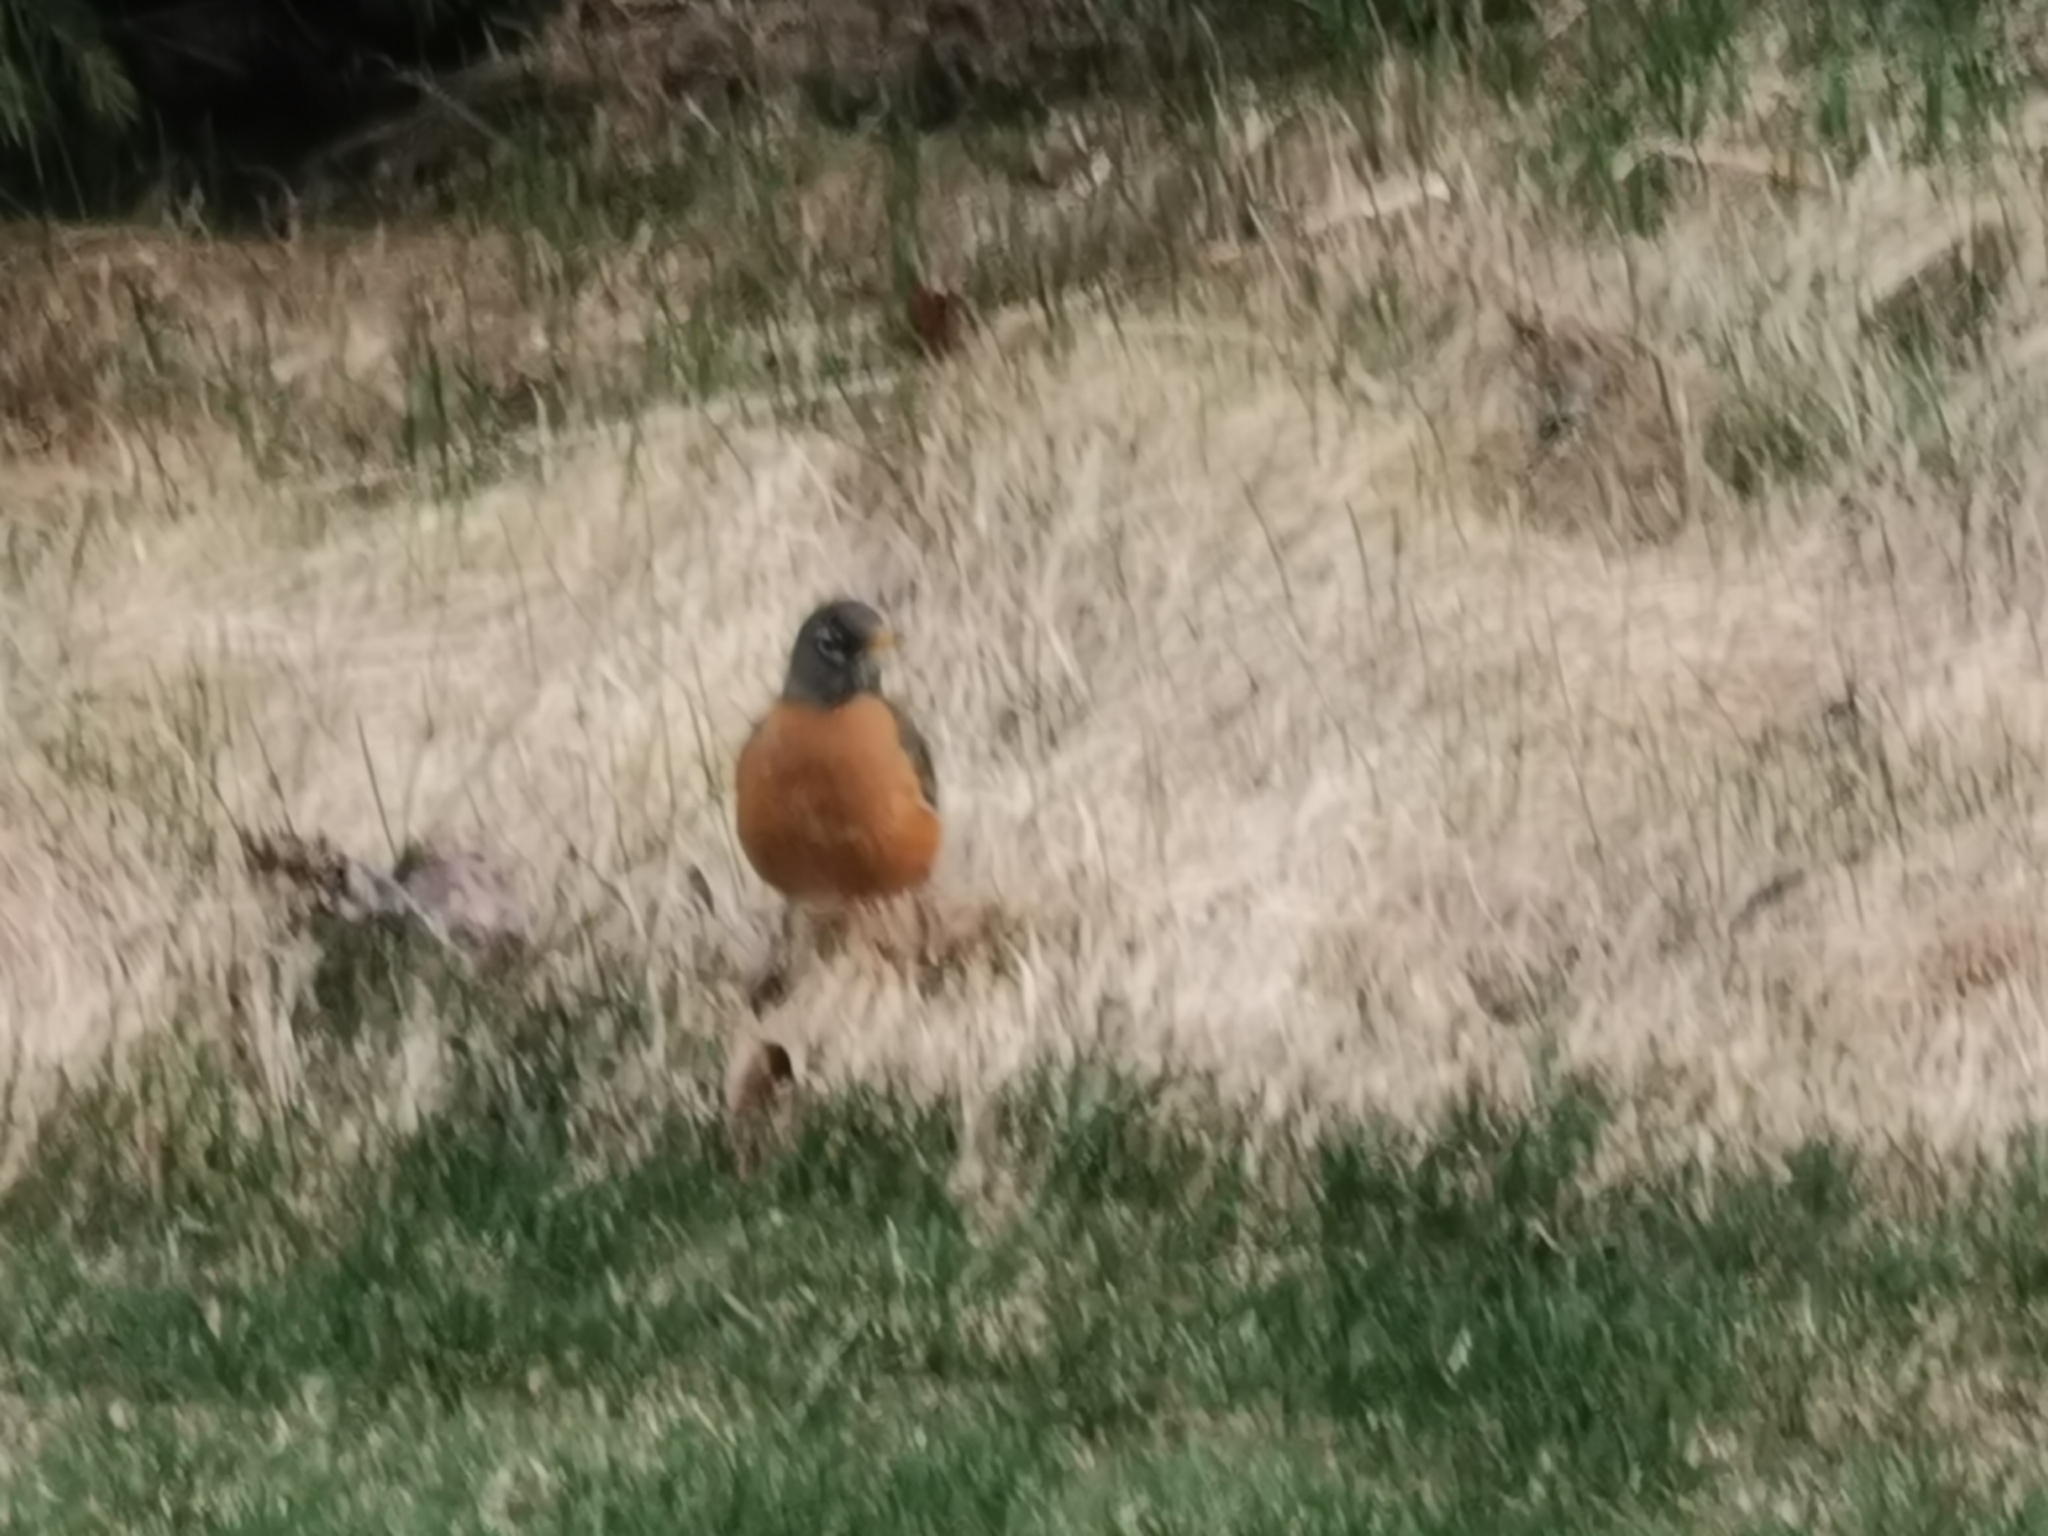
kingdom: Animalia
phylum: Chordata
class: Aves
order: Passeriformes
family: Turdidae
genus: Turdus
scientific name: Turdus migratorius
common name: American robin
